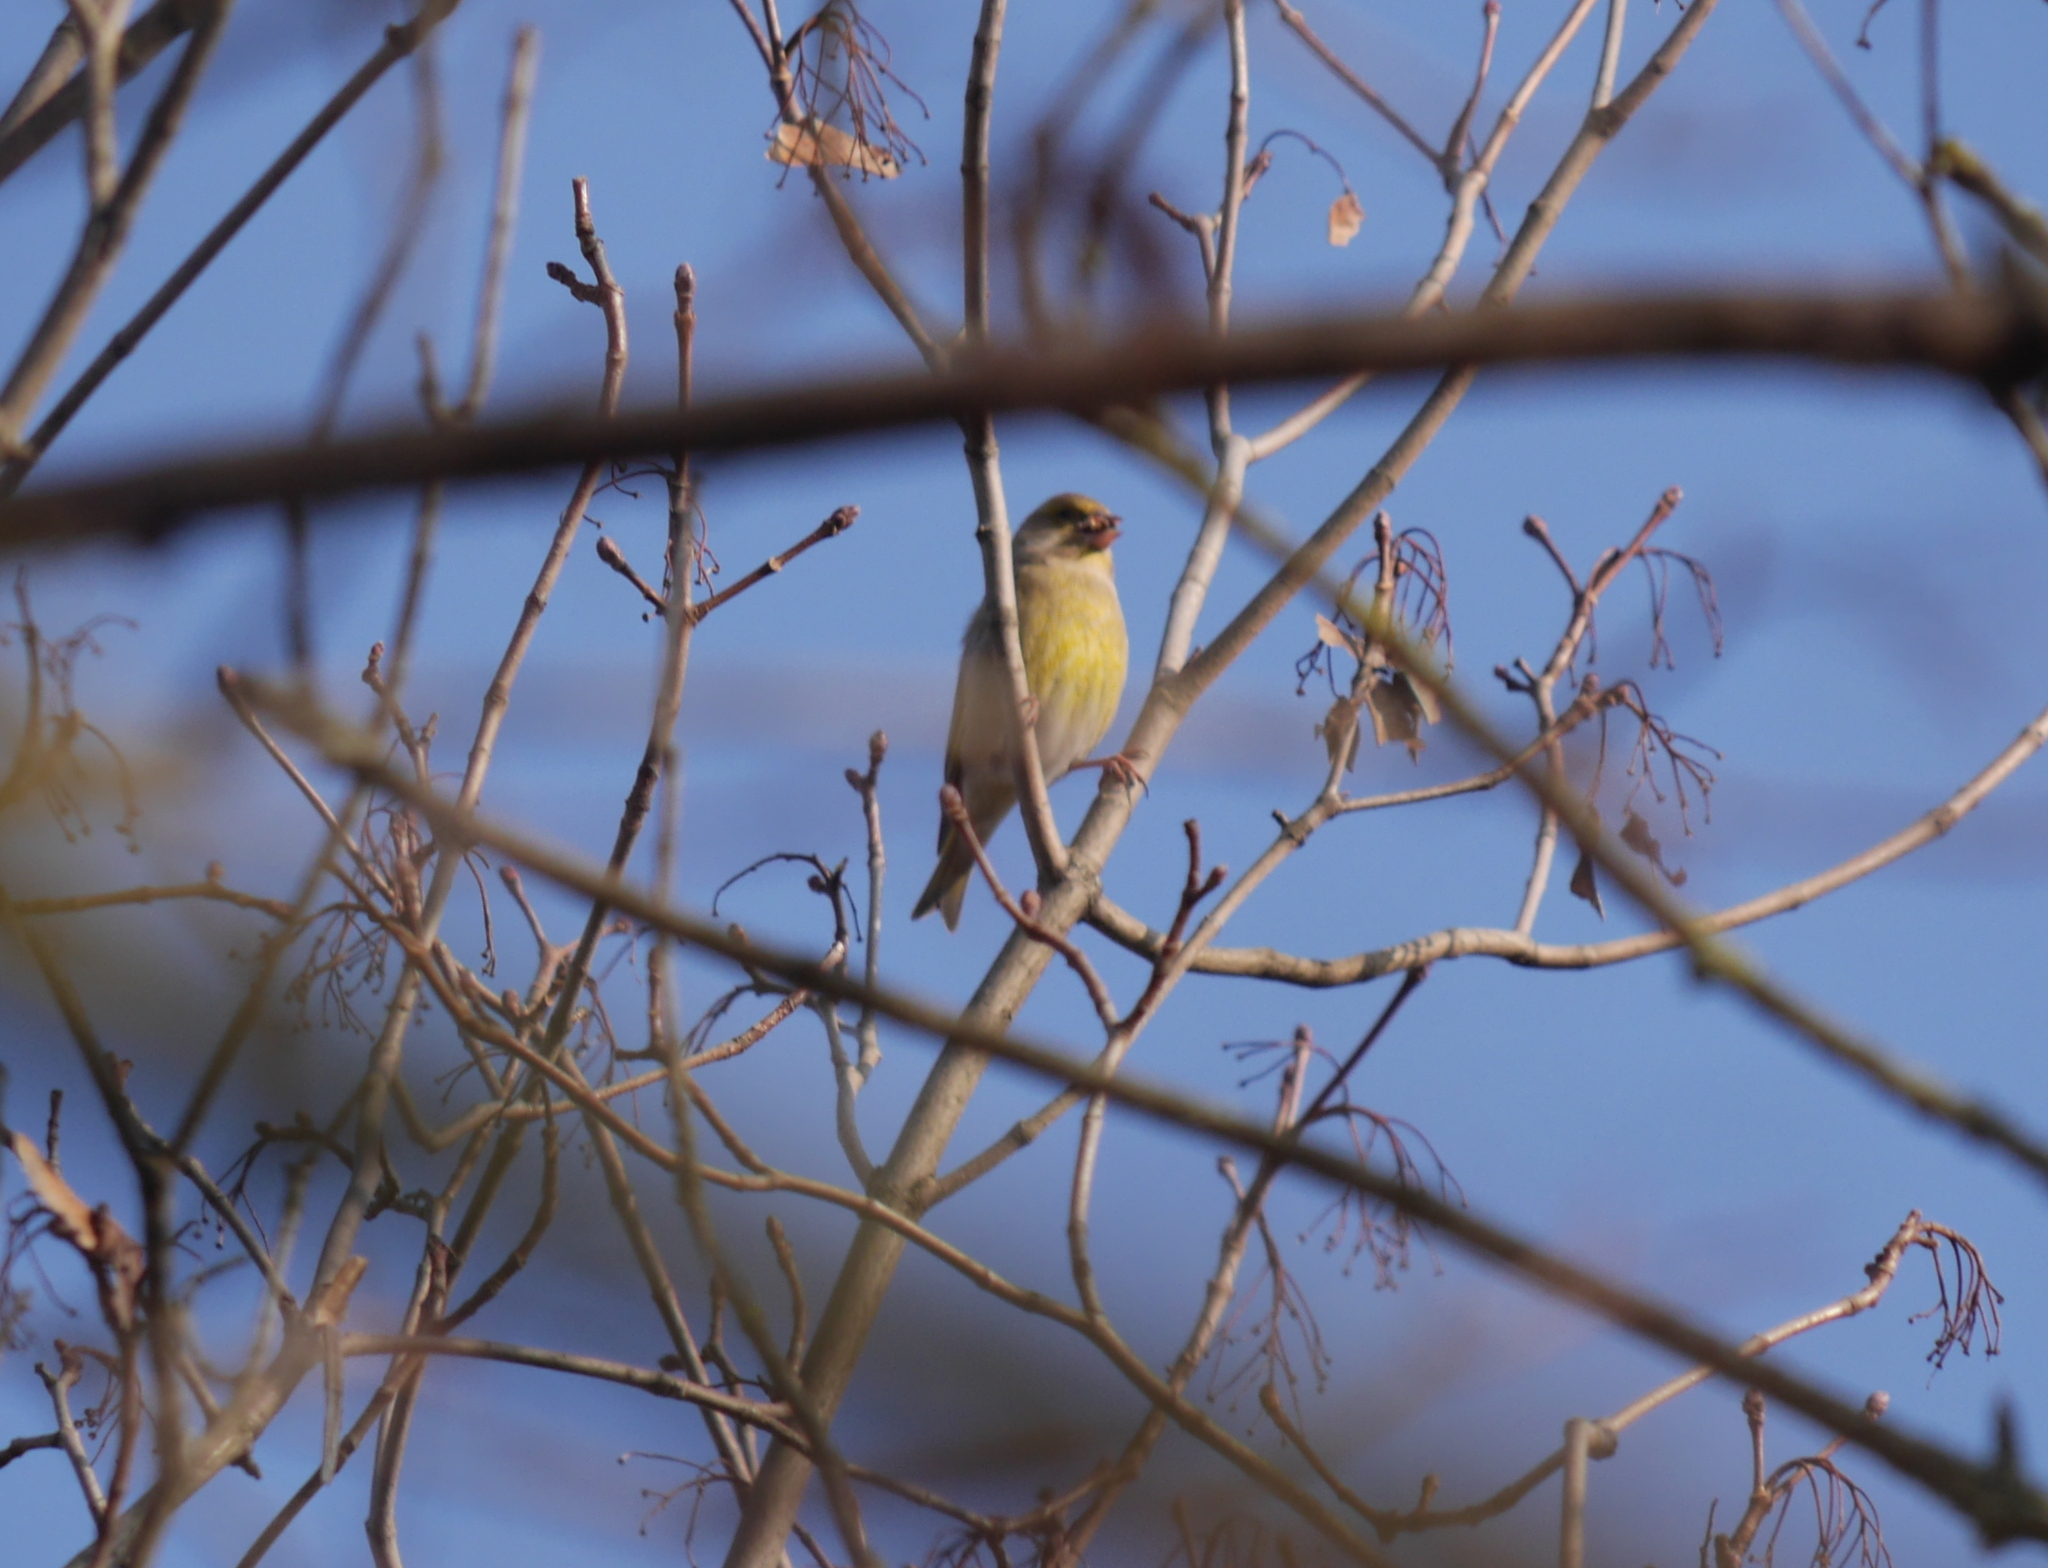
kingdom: Plantae
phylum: Tracheophyta
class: Liliopsida
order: Poales
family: Poaceae
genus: Chloris
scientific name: Chloris chloris
